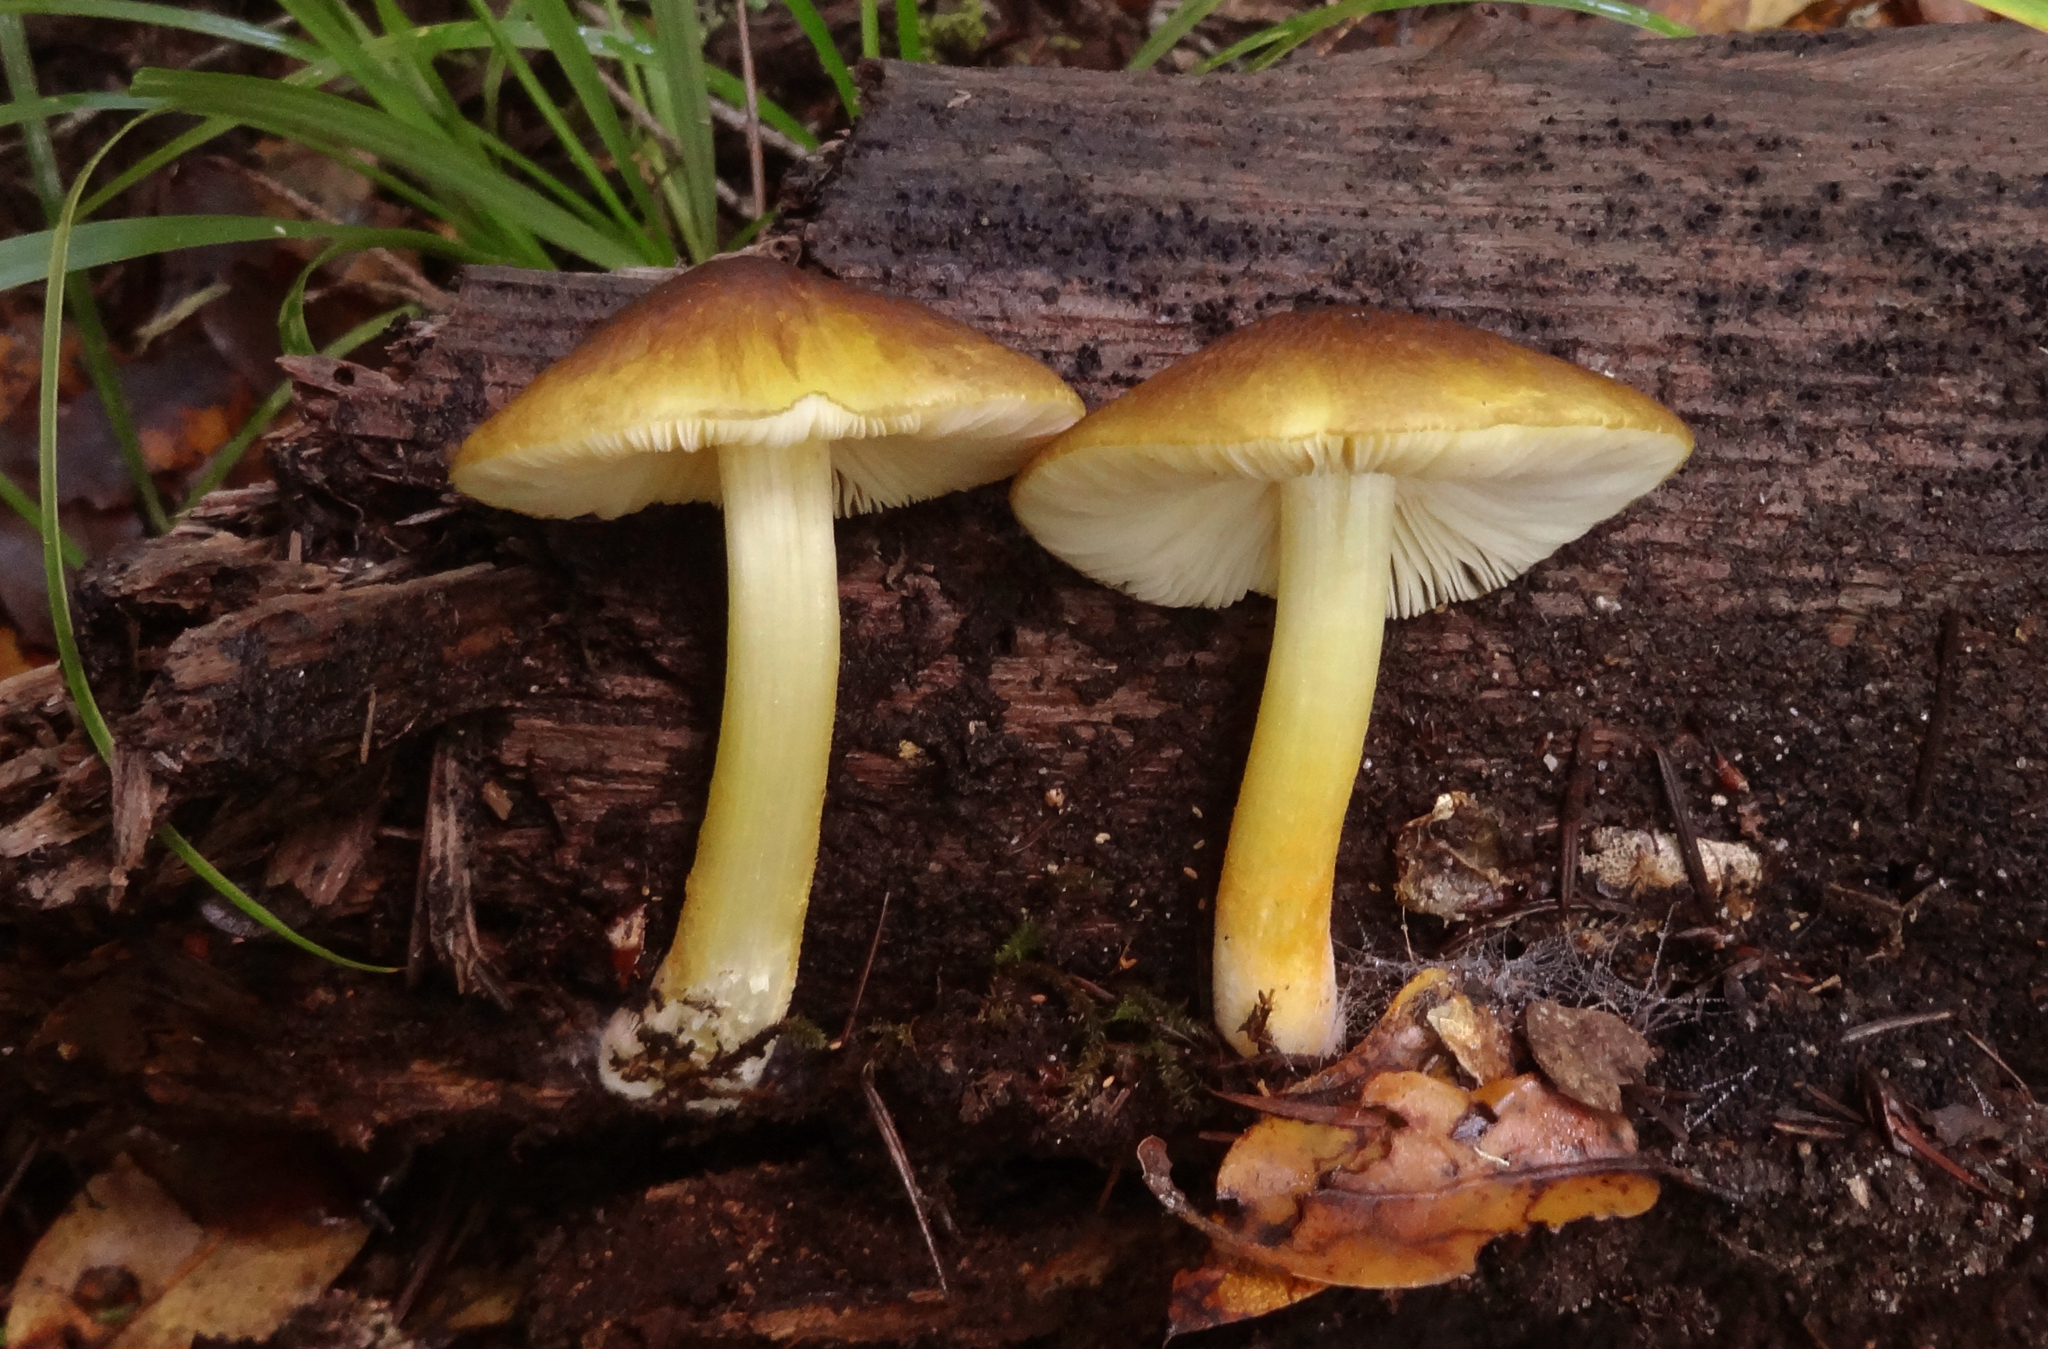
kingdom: Fungi
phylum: Basidiomycota
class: Agaricomycetes
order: Agaricales
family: Pluteaceae
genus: Pluteus
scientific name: Pluteus romellii
